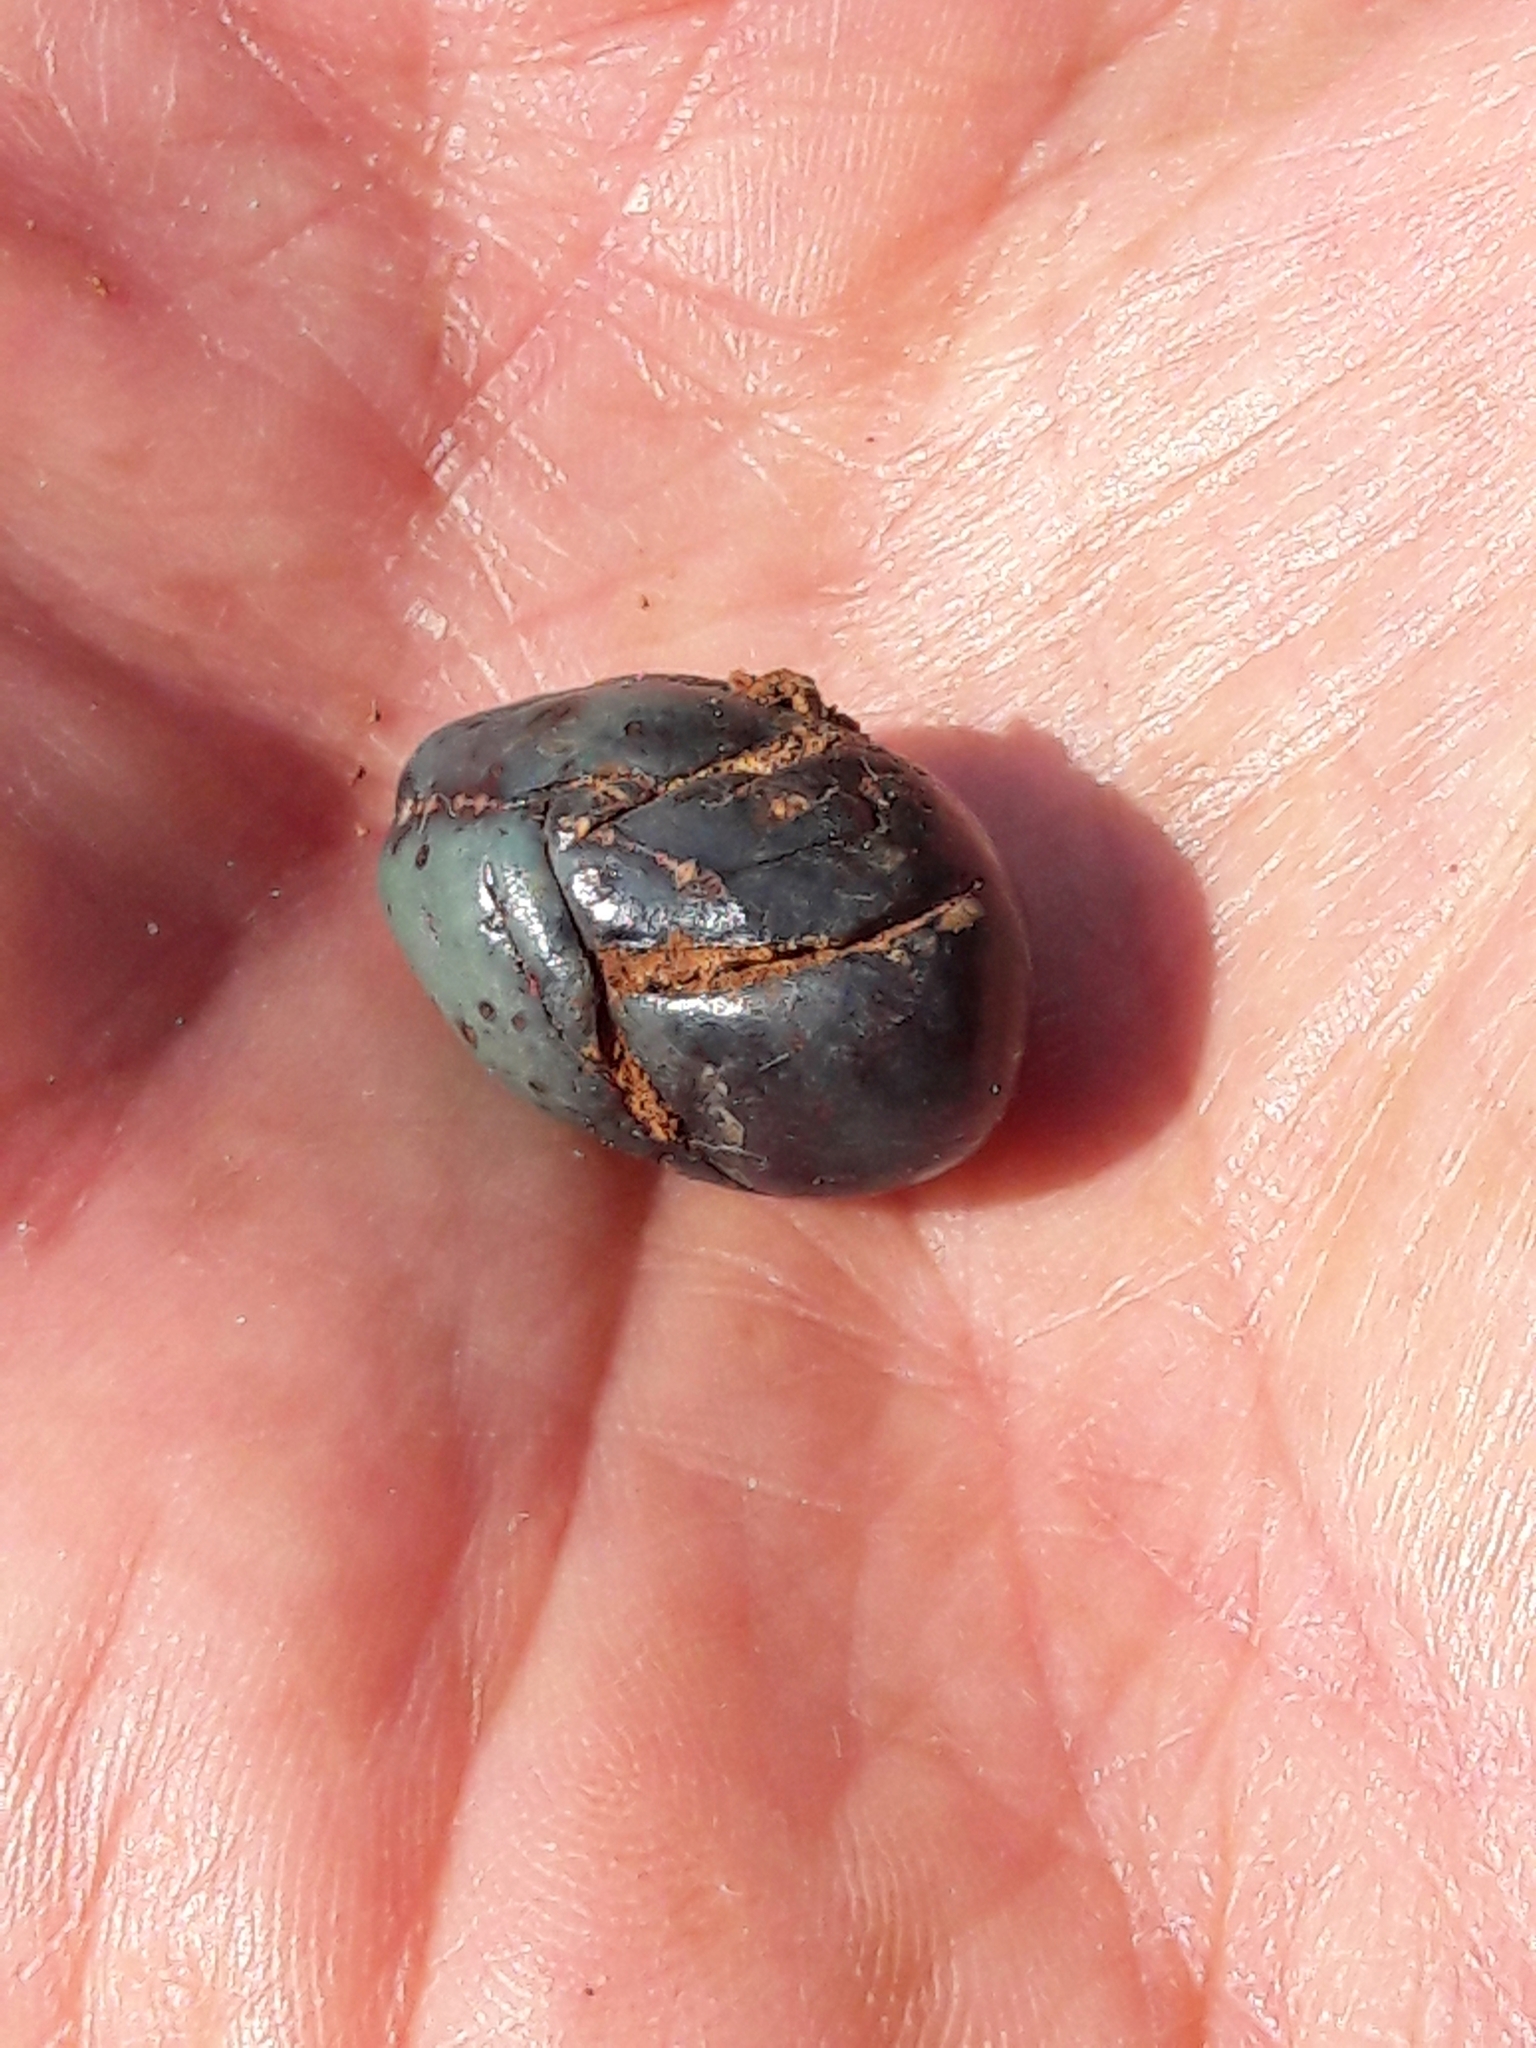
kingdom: Plantae
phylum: Tracheophyta
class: Liliopsida
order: Arecales
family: Arecaceae
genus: Livistona
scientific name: Livistona chinensis
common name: Fountain palm
